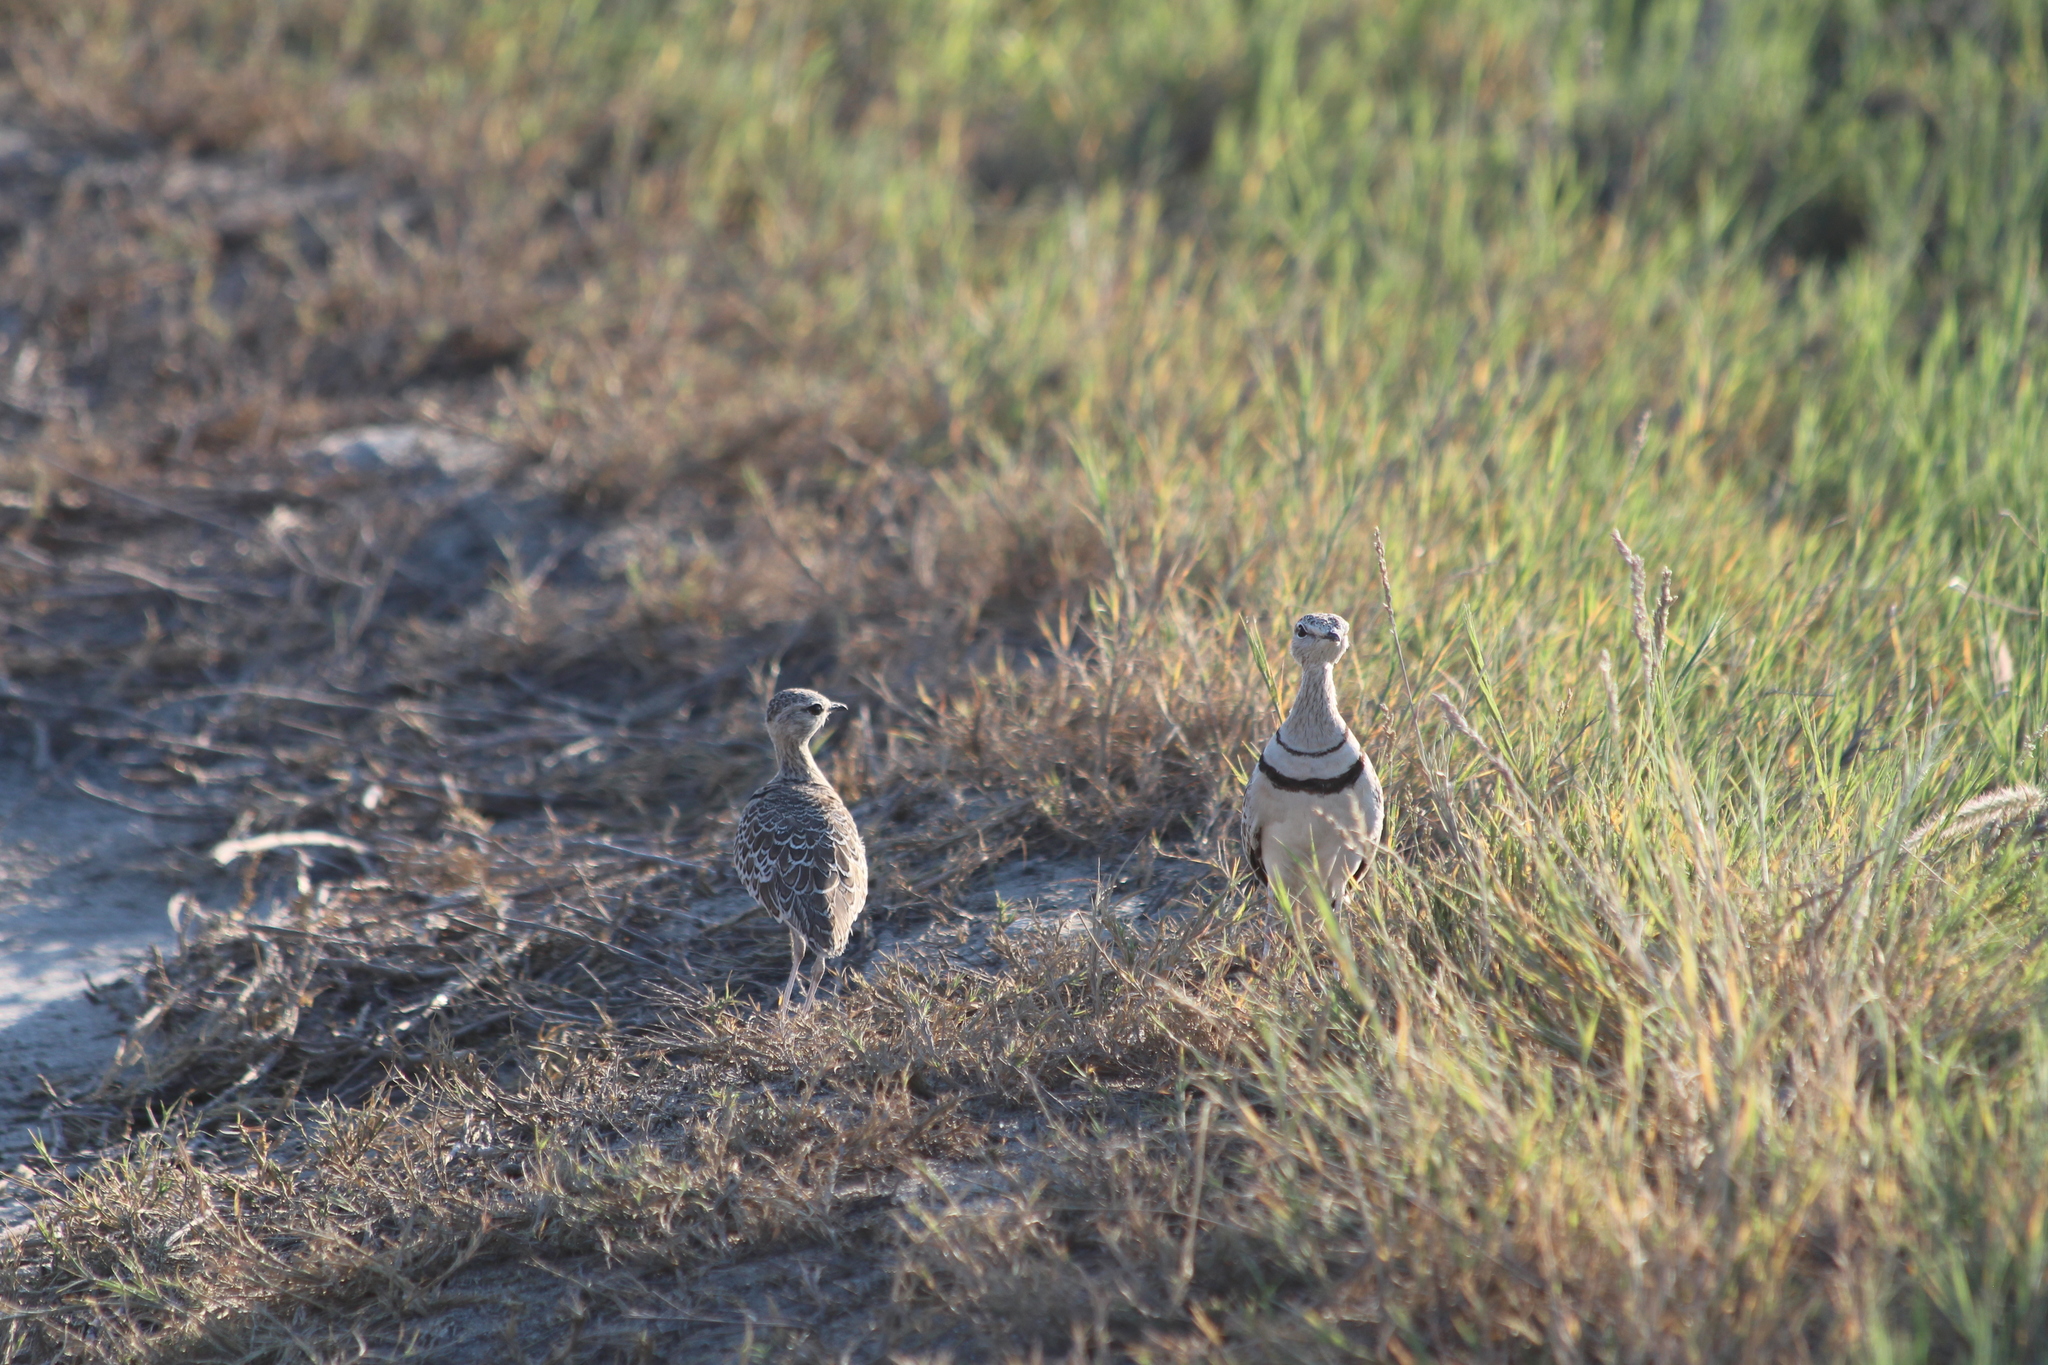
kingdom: Animalia
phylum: Chordata
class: Aves
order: Charadriiformes
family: Glareolidae
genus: Rhinoptilus
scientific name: Rhinoptilus africanus
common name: Double-banded courser
